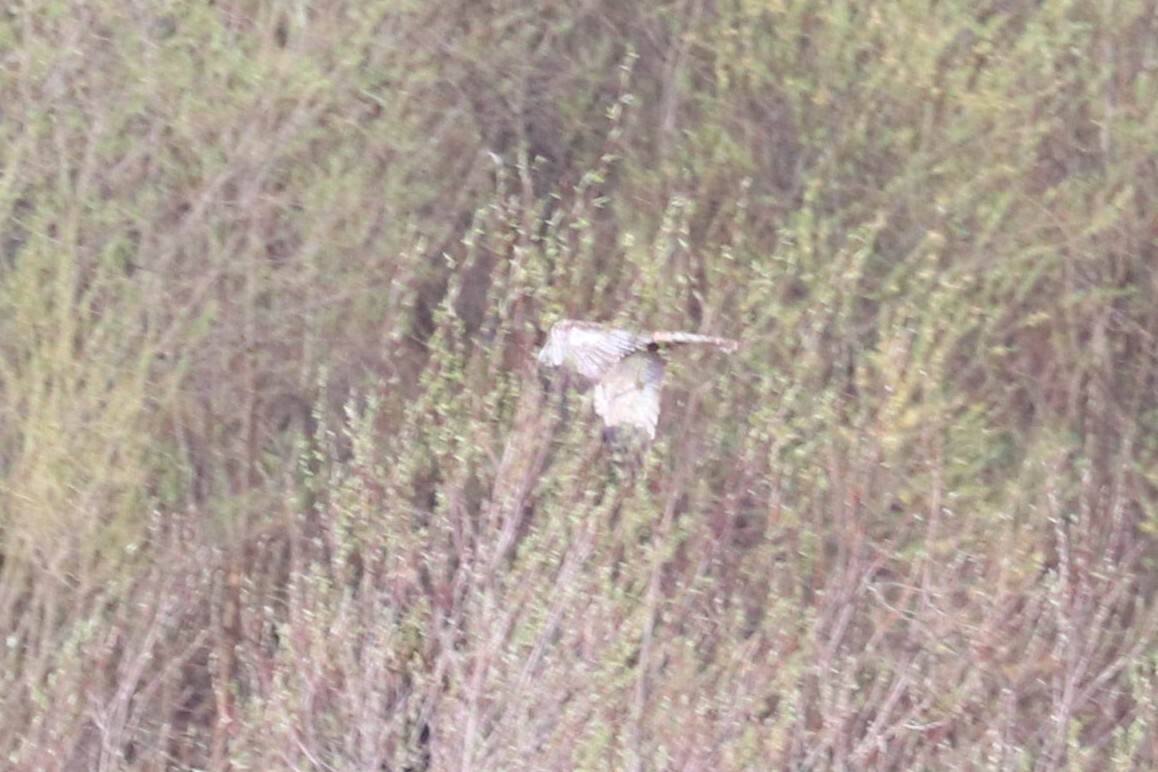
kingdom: Animalia
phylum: Chordata
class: Aves
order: Accipitriformes
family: Accipitridae
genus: Circus
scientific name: Circus aeruginosus
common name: Western marsh harrier
